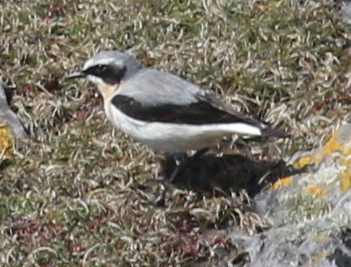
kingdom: Animalia
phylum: Chordata
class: Aves
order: Passeriformes
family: Muscicapidae
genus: Oenanthe
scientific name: Oenanthe oenanthe
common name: Northern wheatear
